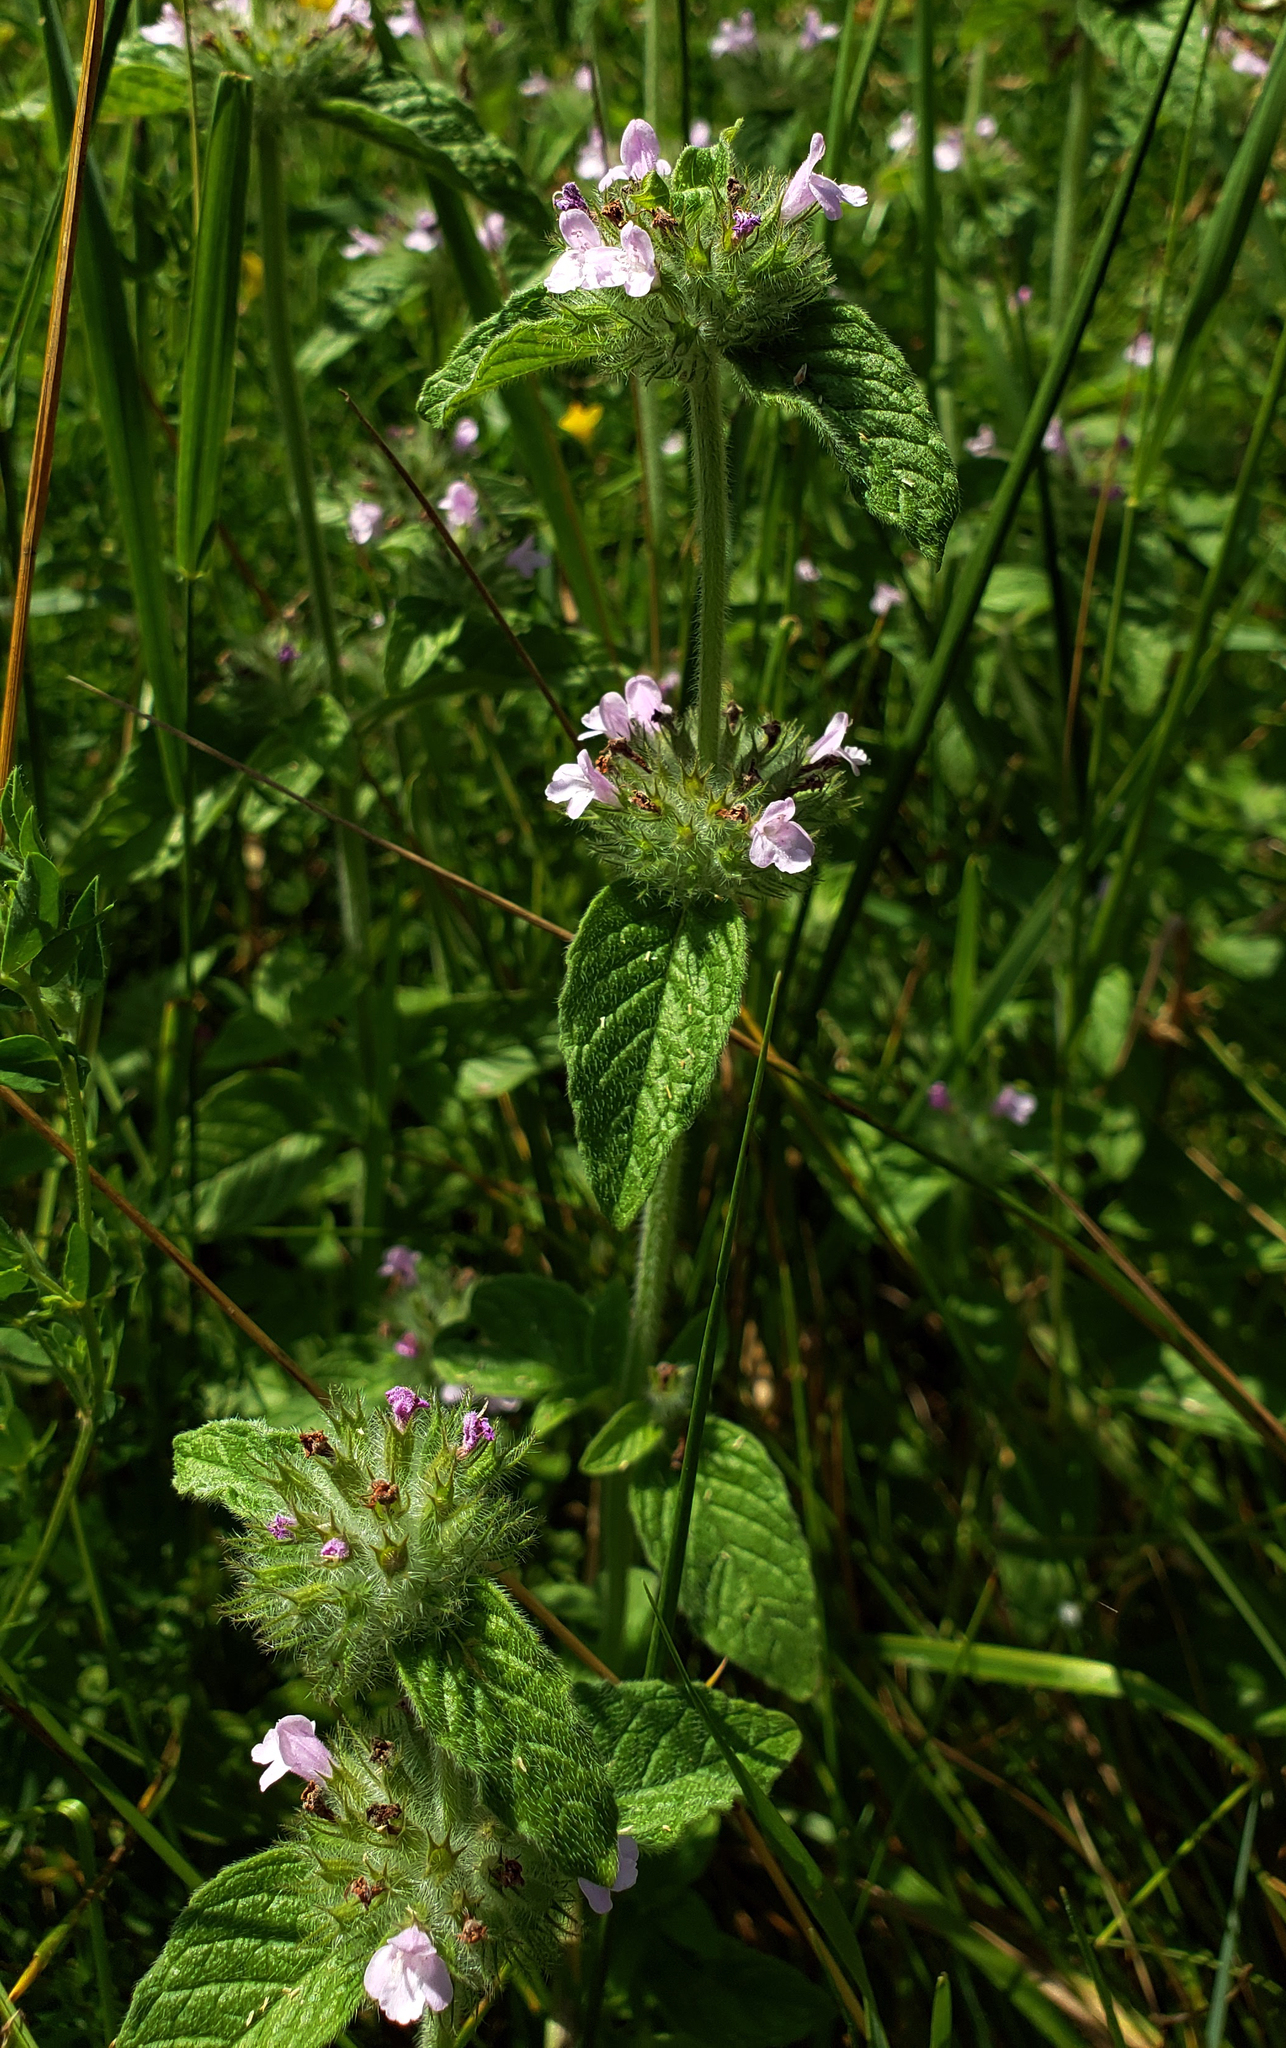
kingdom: Plantae
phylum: Tracheophyta
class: Magnoliopsida
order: Lamiales
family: Lamiaceae
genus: Clinopodium
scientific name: Clinopodium vulgare
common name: Wild basil
